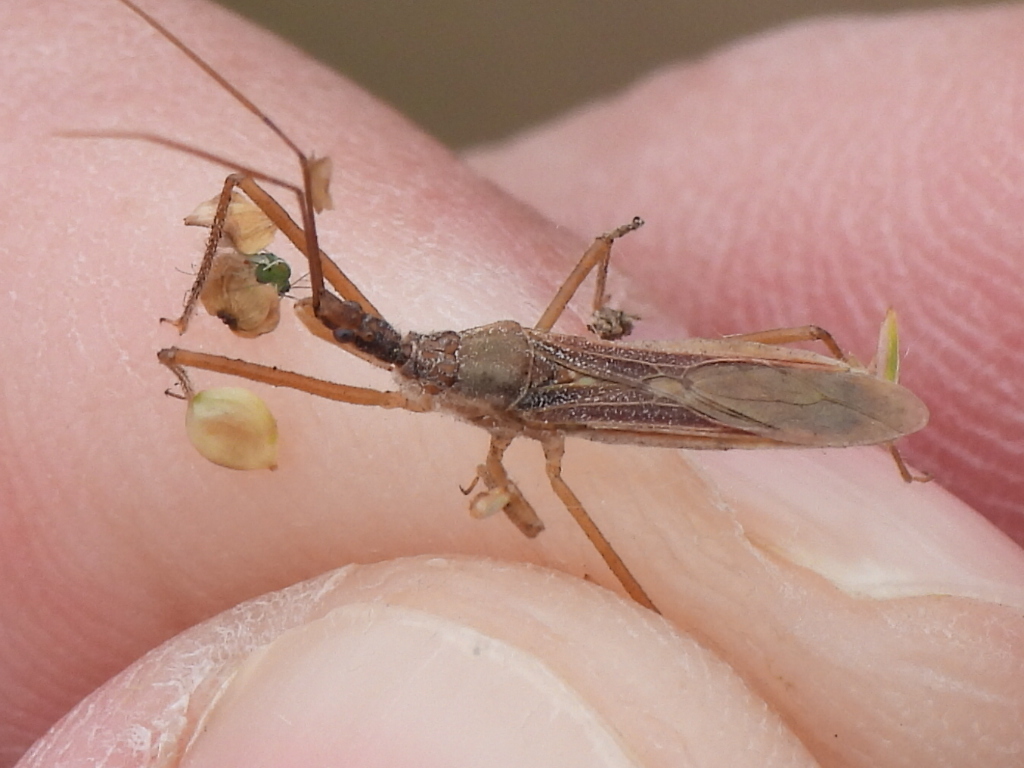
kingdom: Animalia
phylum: Arthropoda
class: Insecta
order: Hemiptera
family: Reduviidae
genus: Zelus
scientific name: Zelus cervicalis
